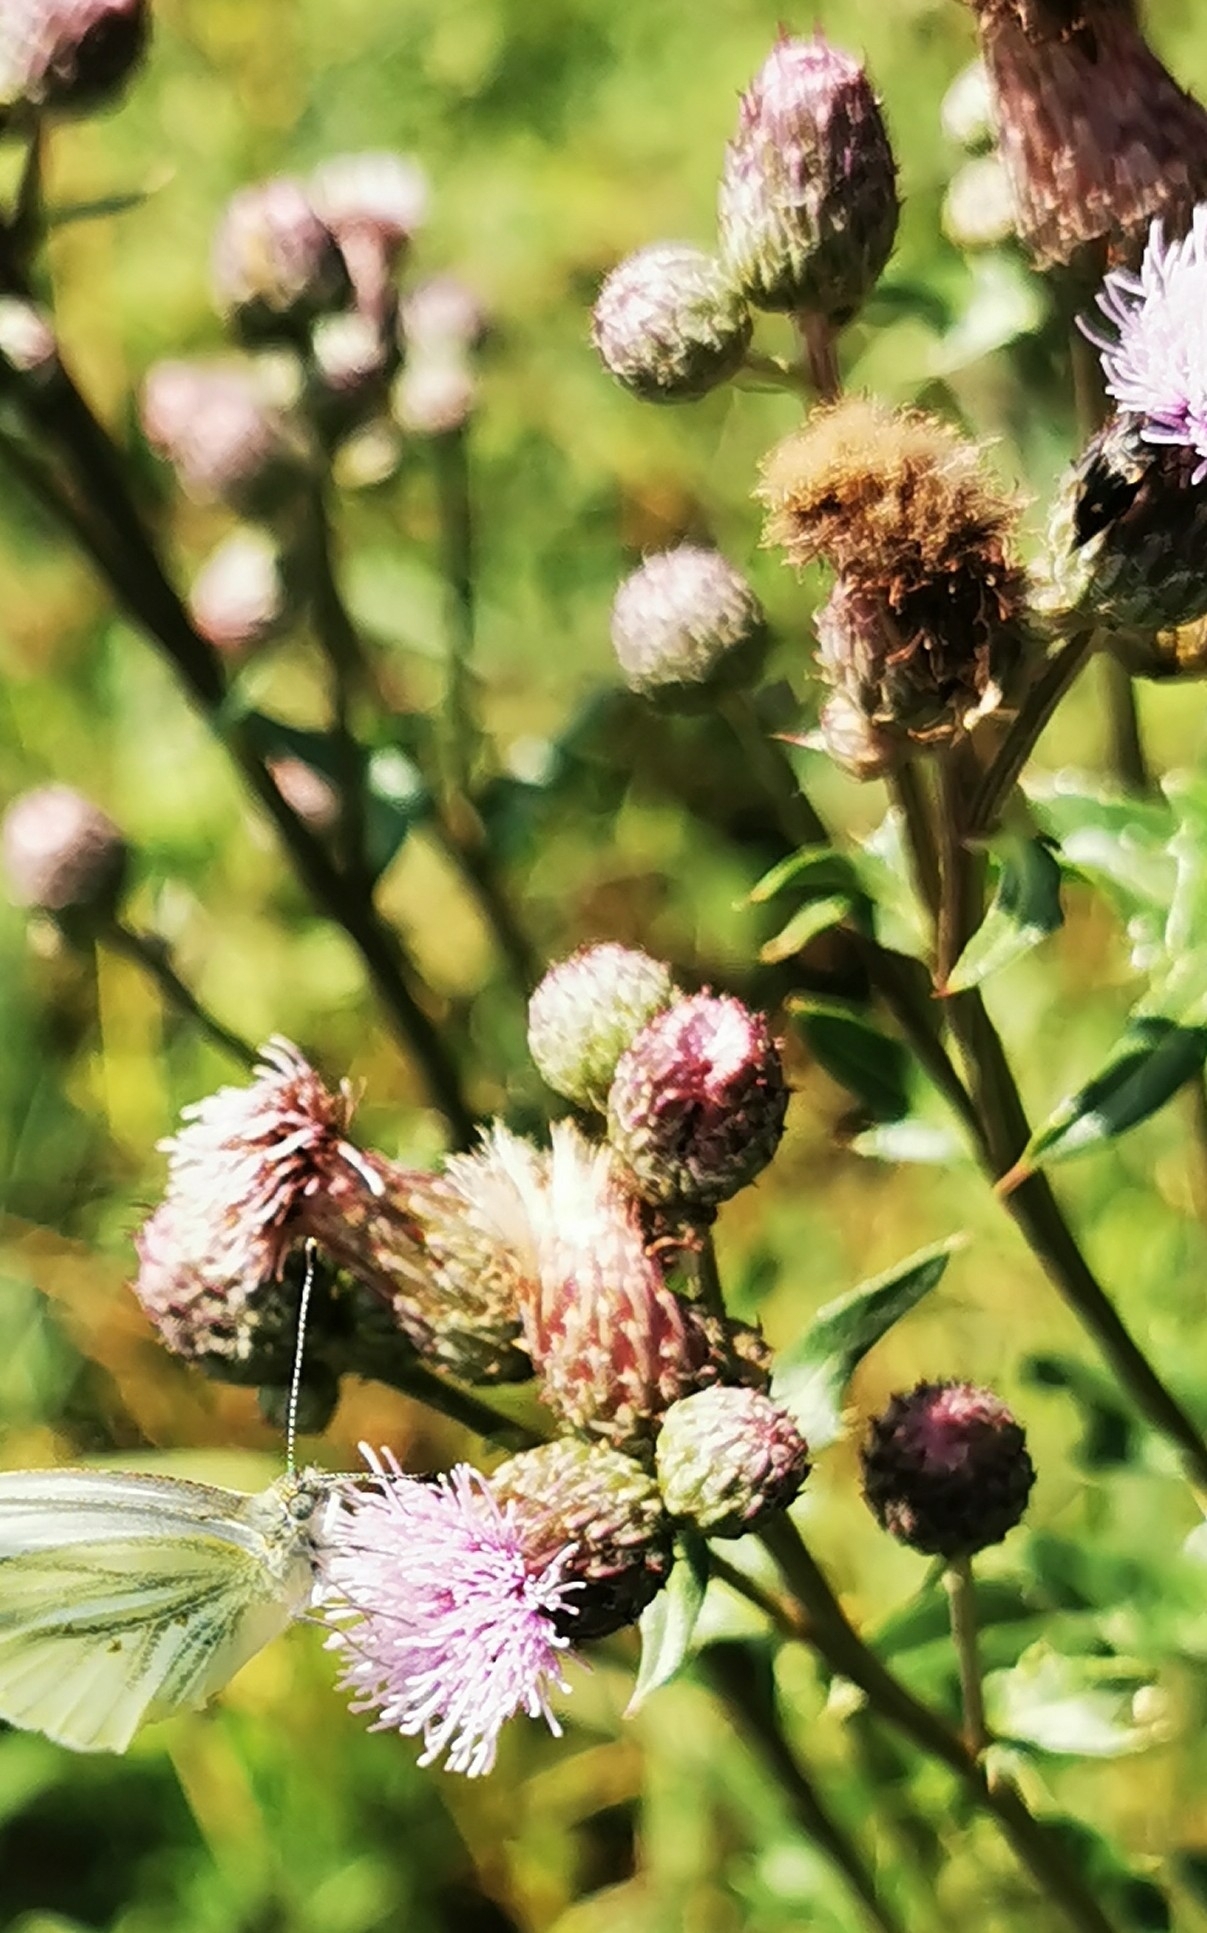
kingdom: Plantae
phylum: Tracheophyta
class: Magnoliopsida
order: Asterales
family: Asteraceae
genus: Cirsium
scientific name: Cirsium arvense
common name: Creeping thistle
